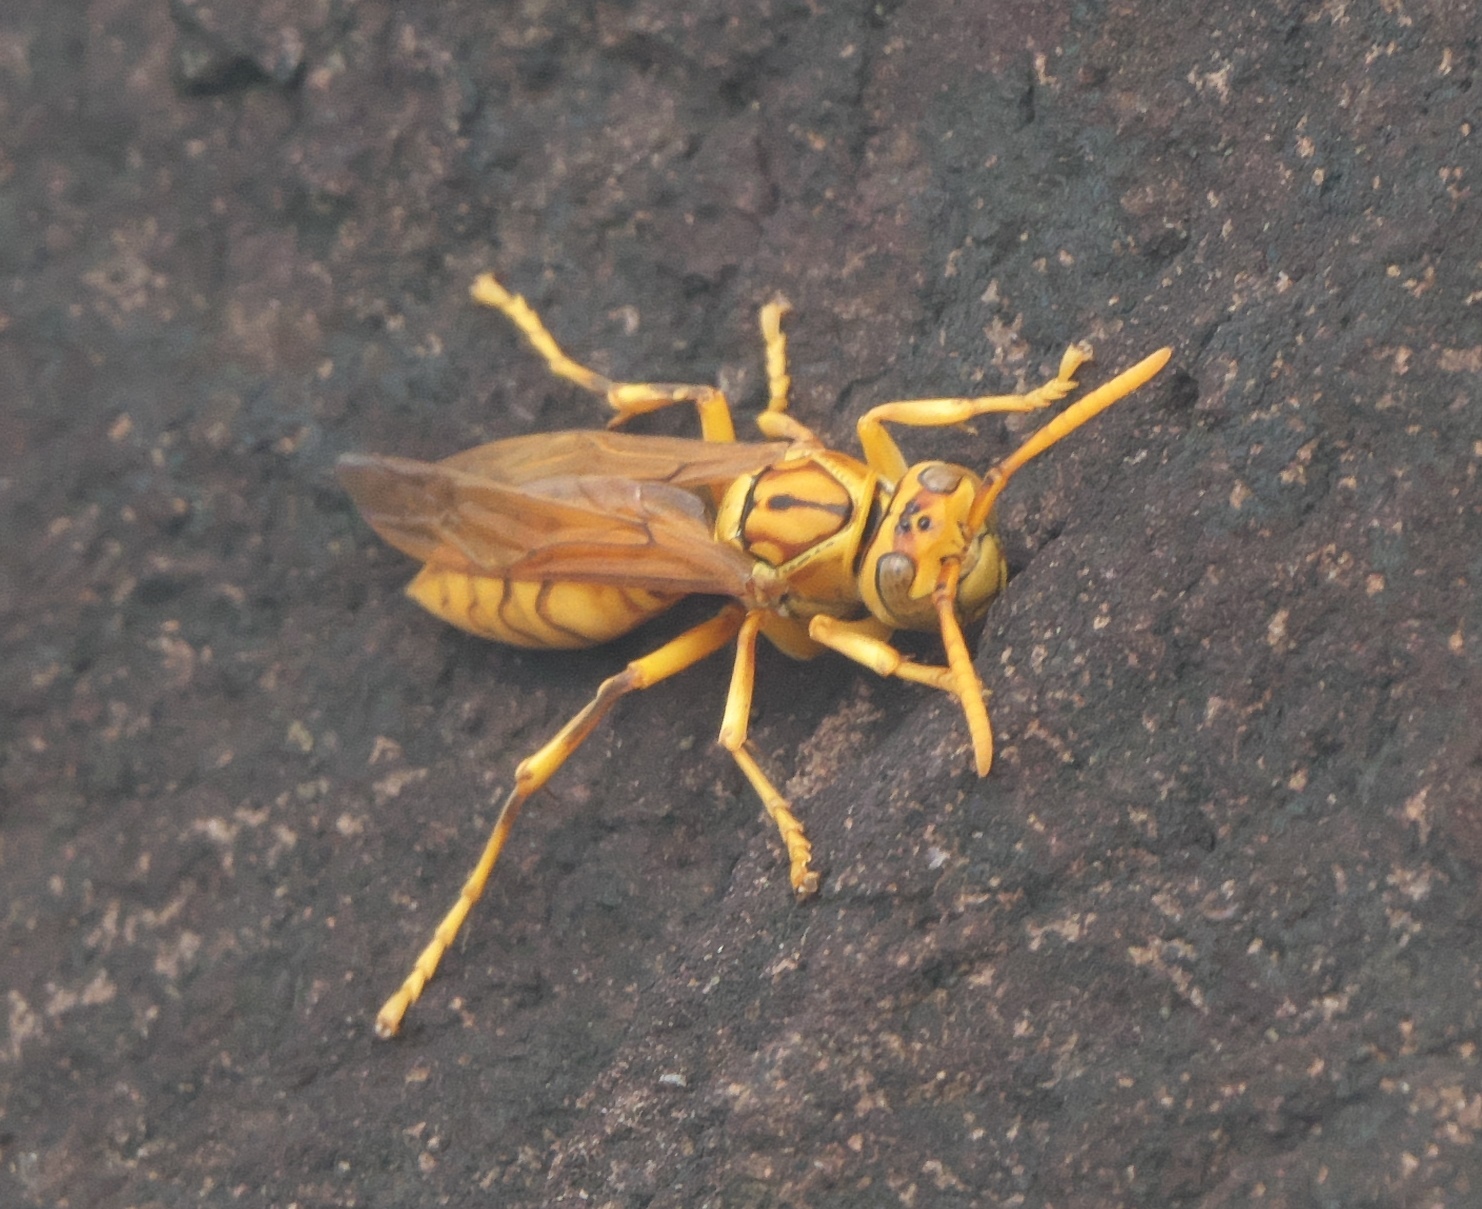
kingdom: Animalia
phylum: Arthropoda
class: Insecta
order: Hymenoptera
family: Eumenidae
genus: Polistes
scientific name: Polistes olivaceus
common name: Paper wasp
